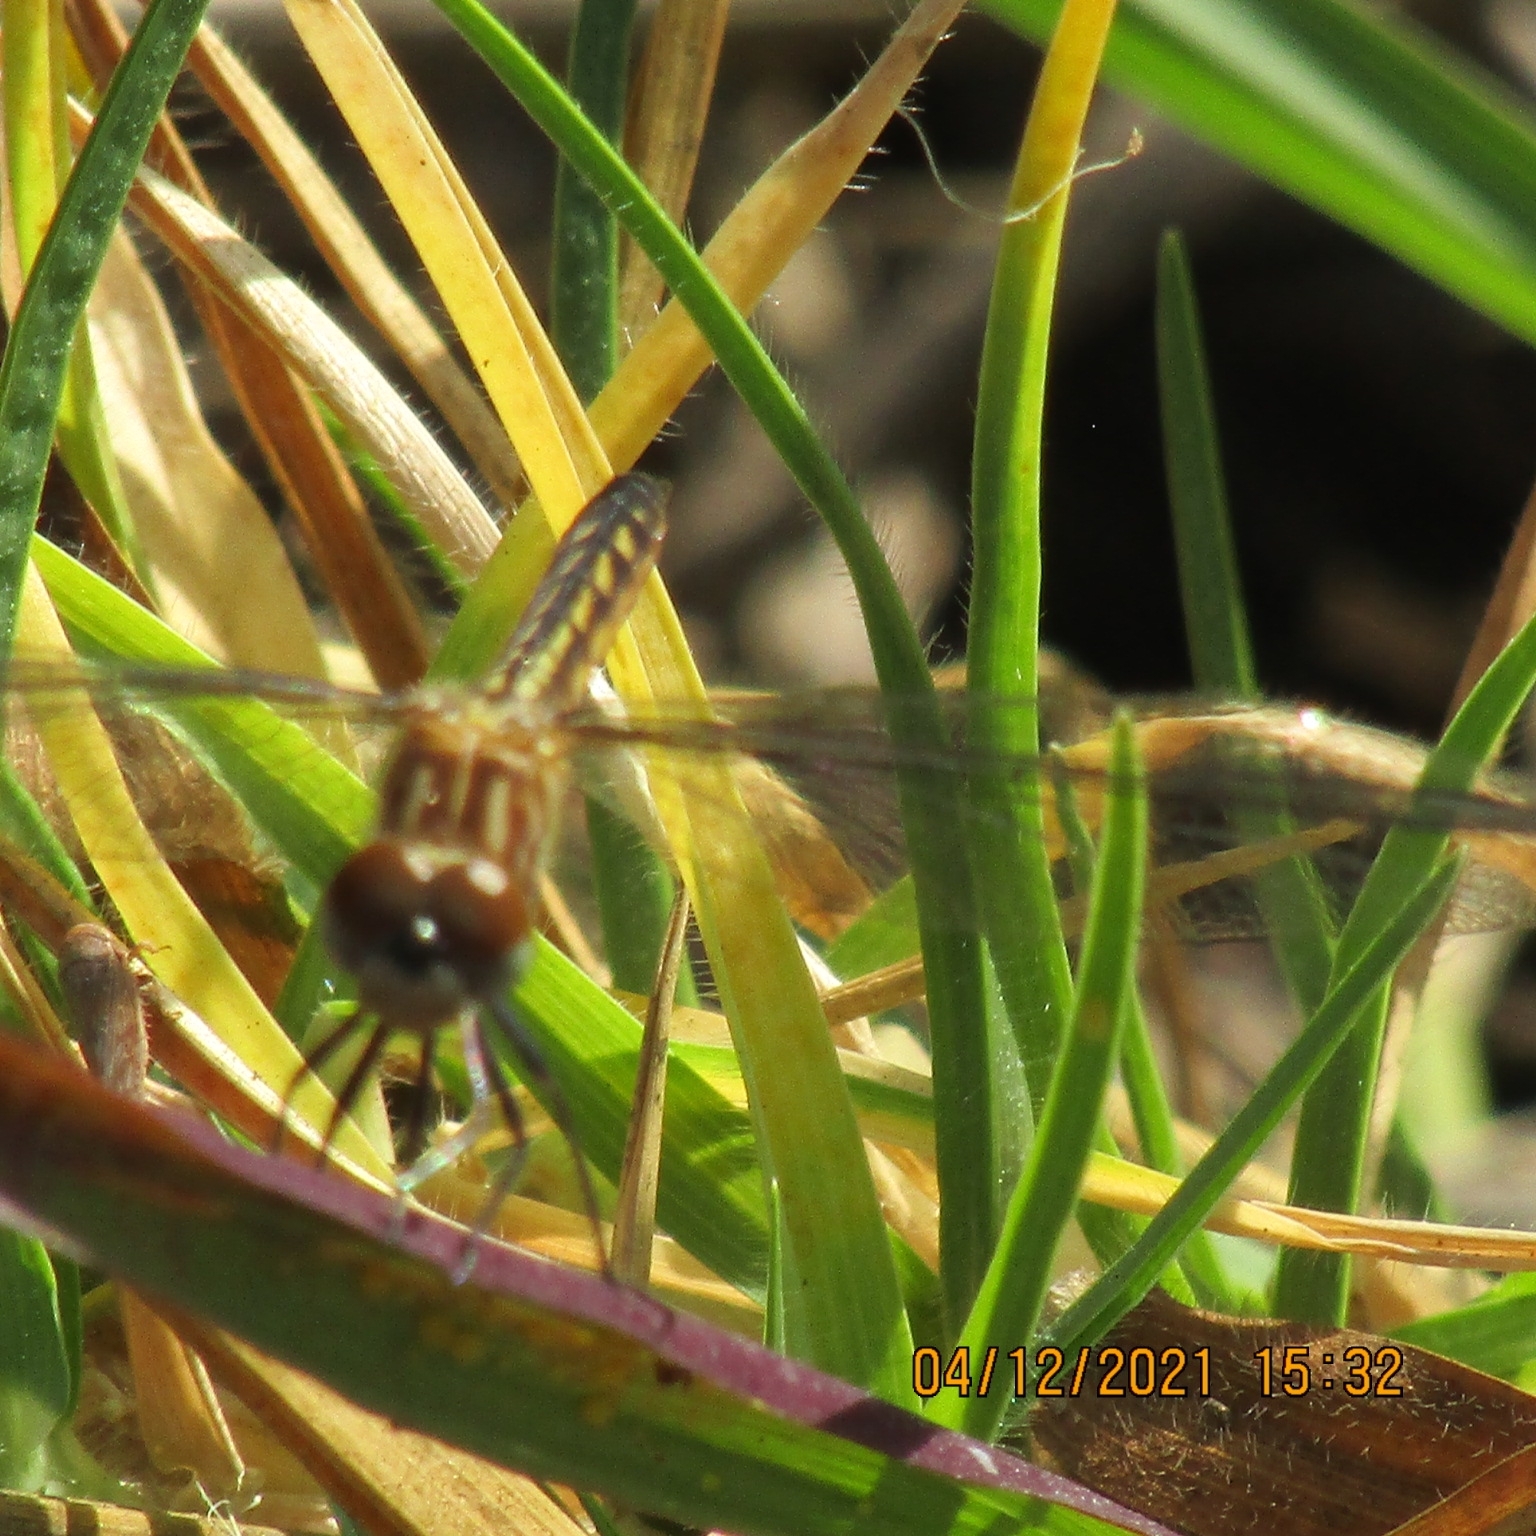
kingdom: Animalia
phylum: Arthropoda
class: Insecta
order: Odonata
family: Libellulidae
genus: Pachydiplax
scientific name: Pachydiplax longipennis
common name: Blue dasher
